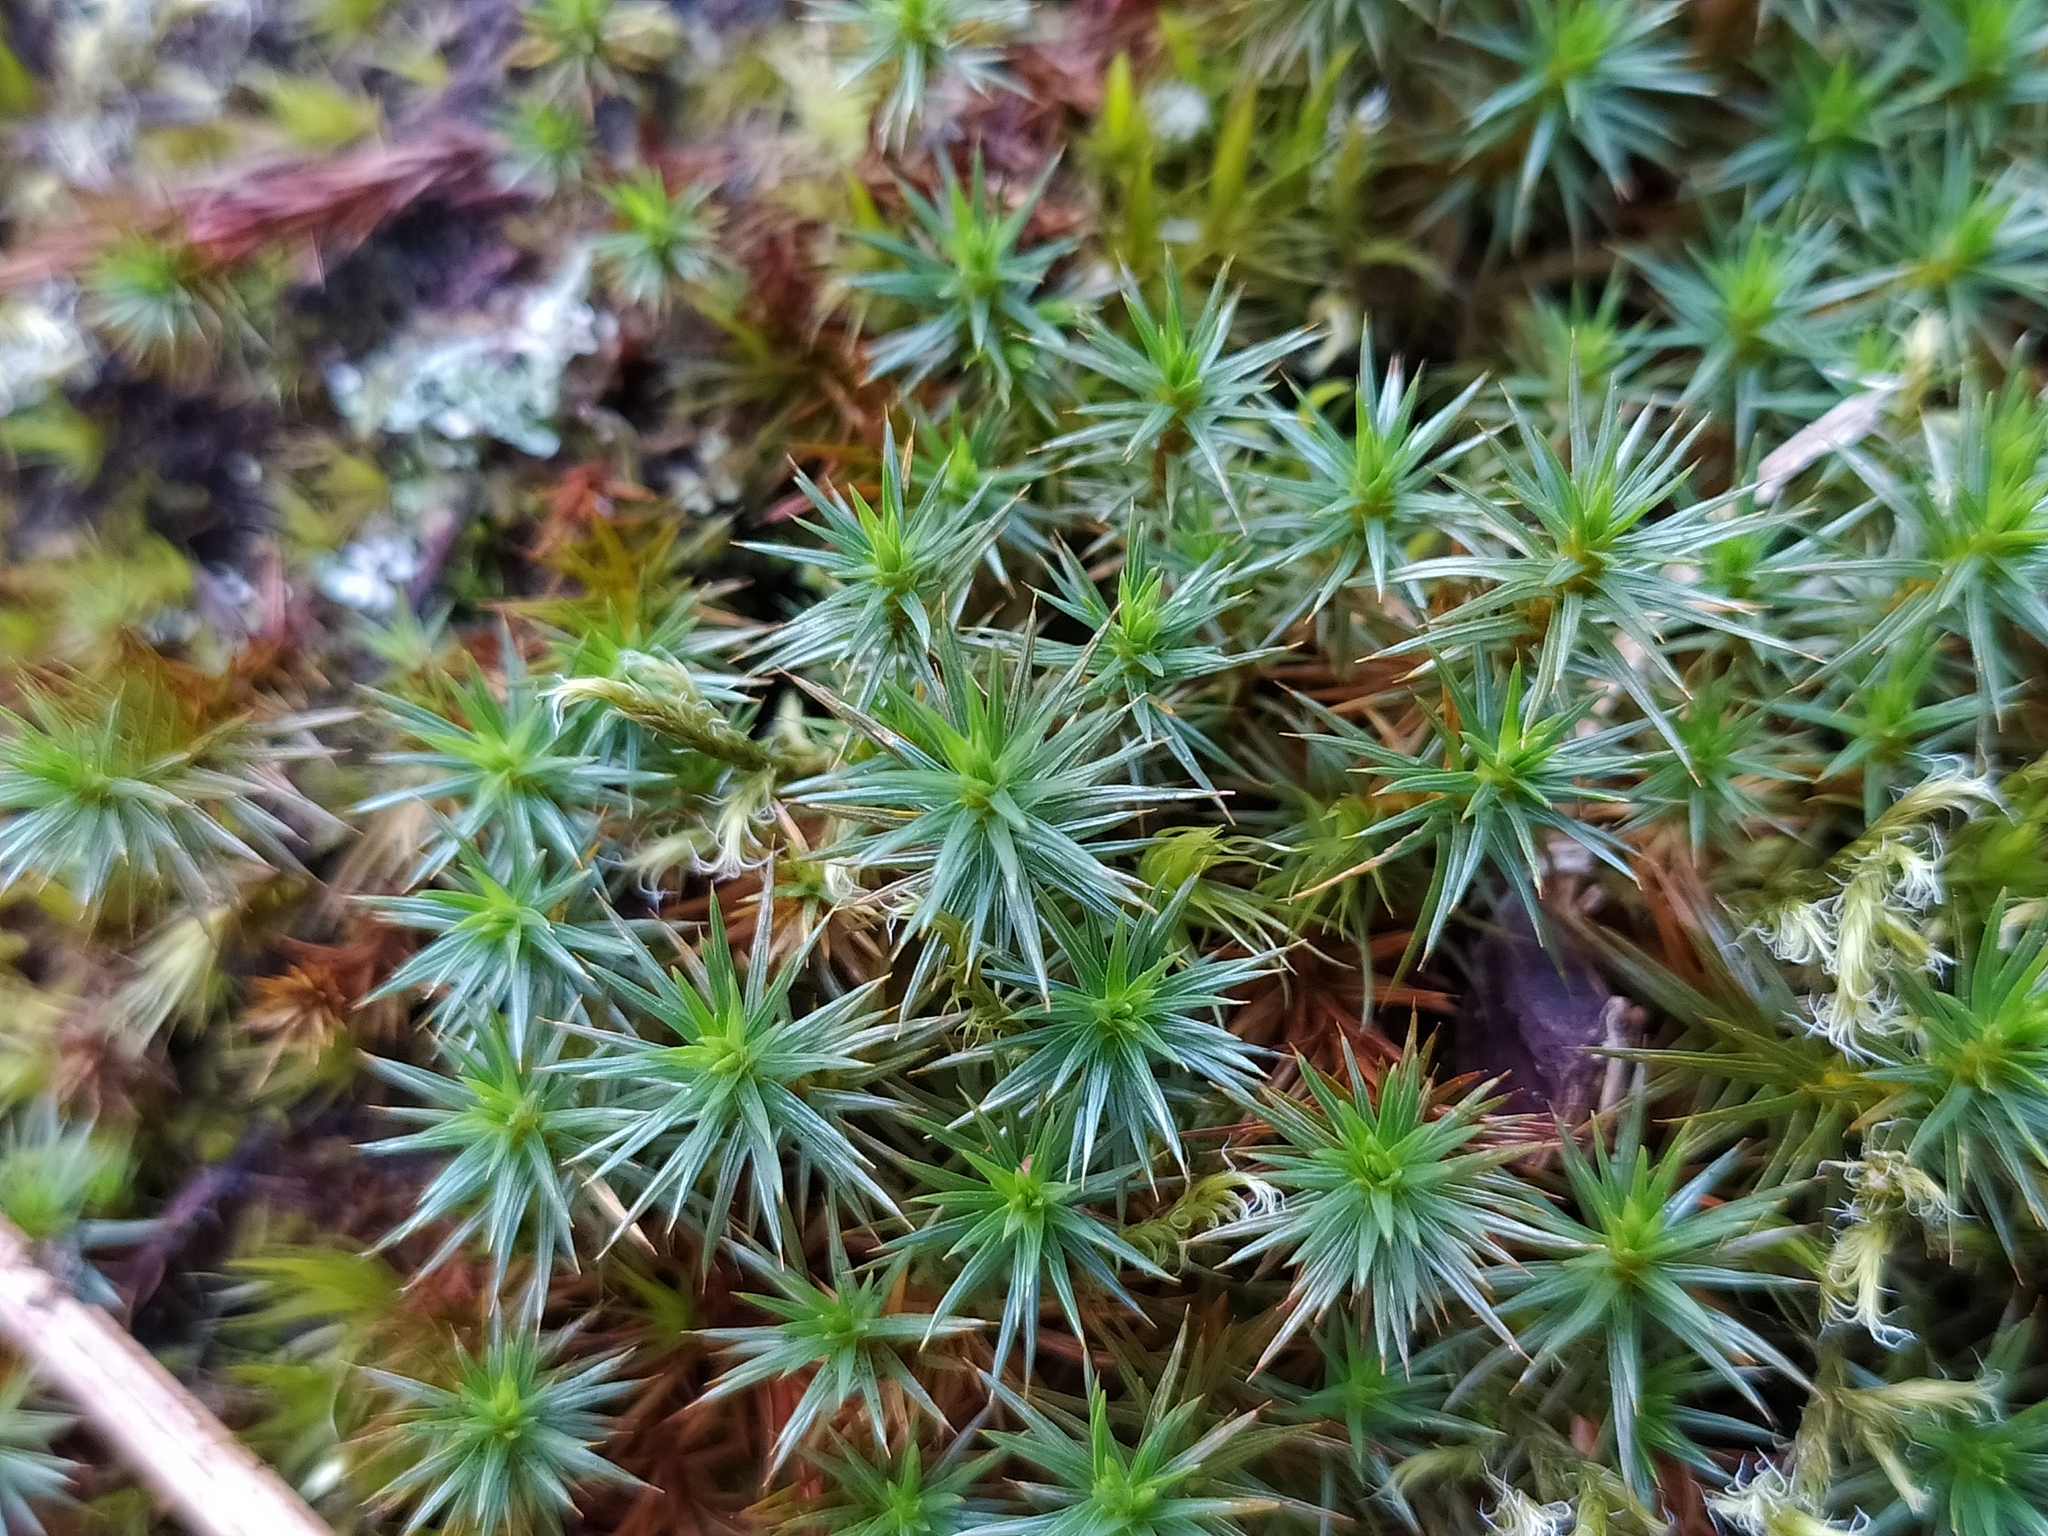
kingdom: Plantae
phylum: Bryophyta
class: Polytrichopsida
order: Polytrichales
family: Polytrichaceae
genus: Polytrichum
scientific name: Polytrichum juniperinum
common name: Juniper haircap moss
